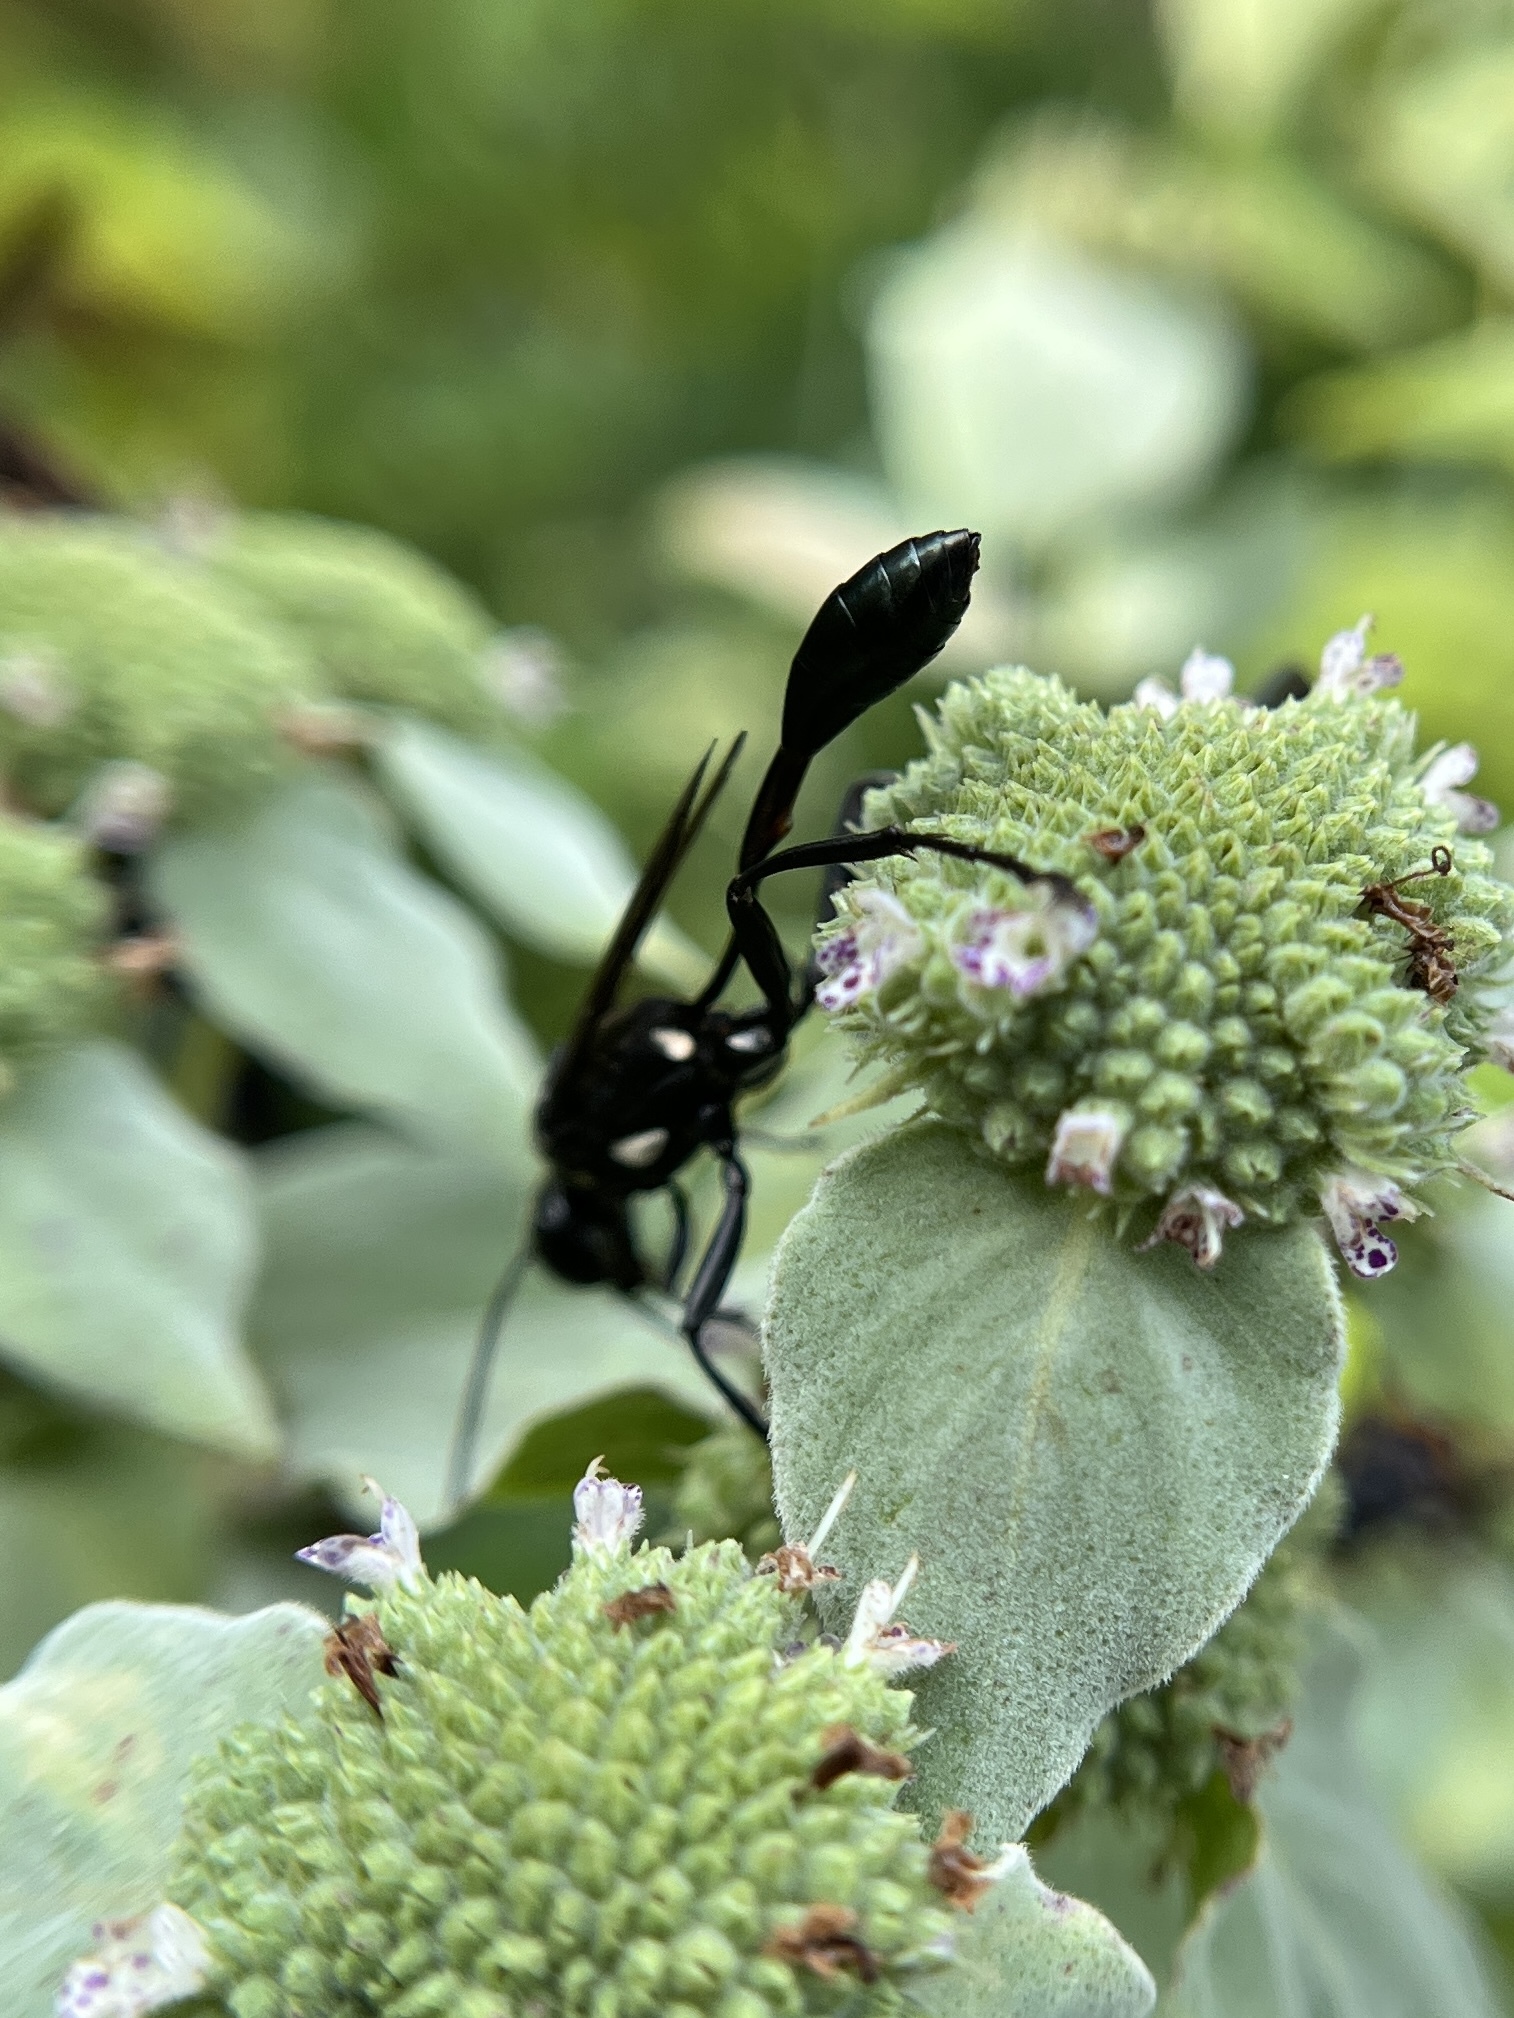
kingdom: Animalia
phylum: Arthropoda
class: Insecta
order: Hymenoptera
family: Sphecidae
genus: Eremnophila
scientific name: Eremnophila aureonotata
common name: Gold-marked thread-waisted wasp
